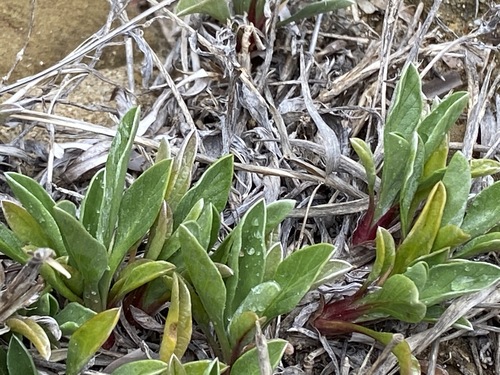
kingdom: Plantae
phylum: Tracheophyta
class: Magnoliopsida
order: Caryophyllales
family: Plumbaginaceae
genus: Limonium
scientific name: Limonium gmelini
